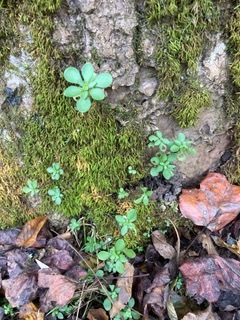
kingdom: Plantae
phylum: Tracheophyta
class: Magnoliopsida
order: Saxifragales
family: Crassulaceae
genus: Sedum
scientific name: Sedum ternatum
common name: Wild stonecrop
